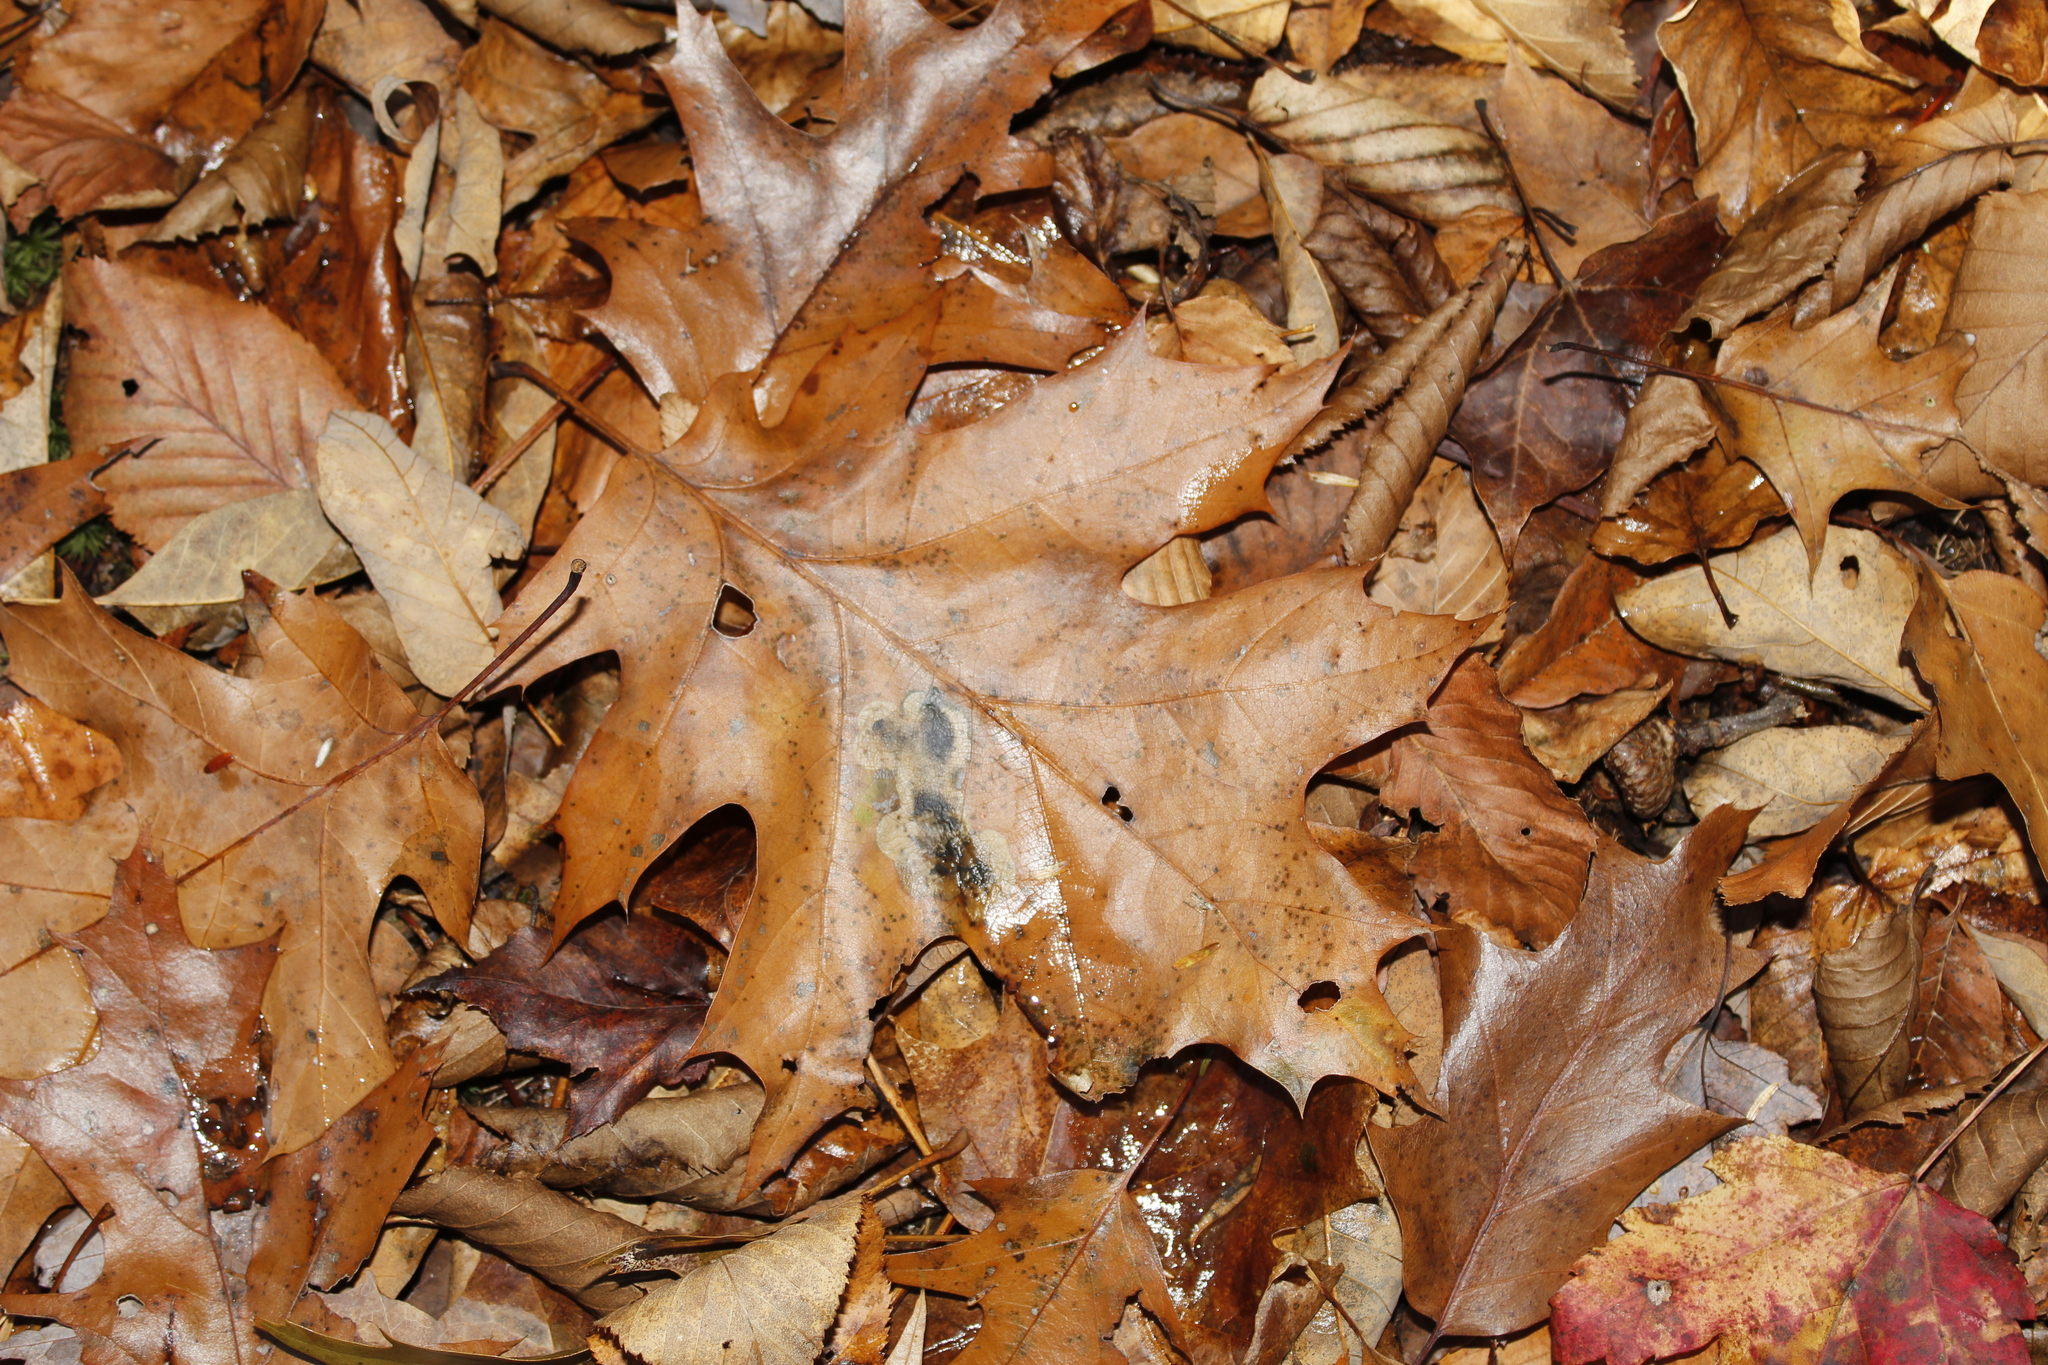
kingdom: Plantae
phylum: Tracheophyta
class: Magnoliopsida
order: Fagales
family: Fagaceae
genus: Quercus
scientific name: Quercus rubra
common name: Red oak
